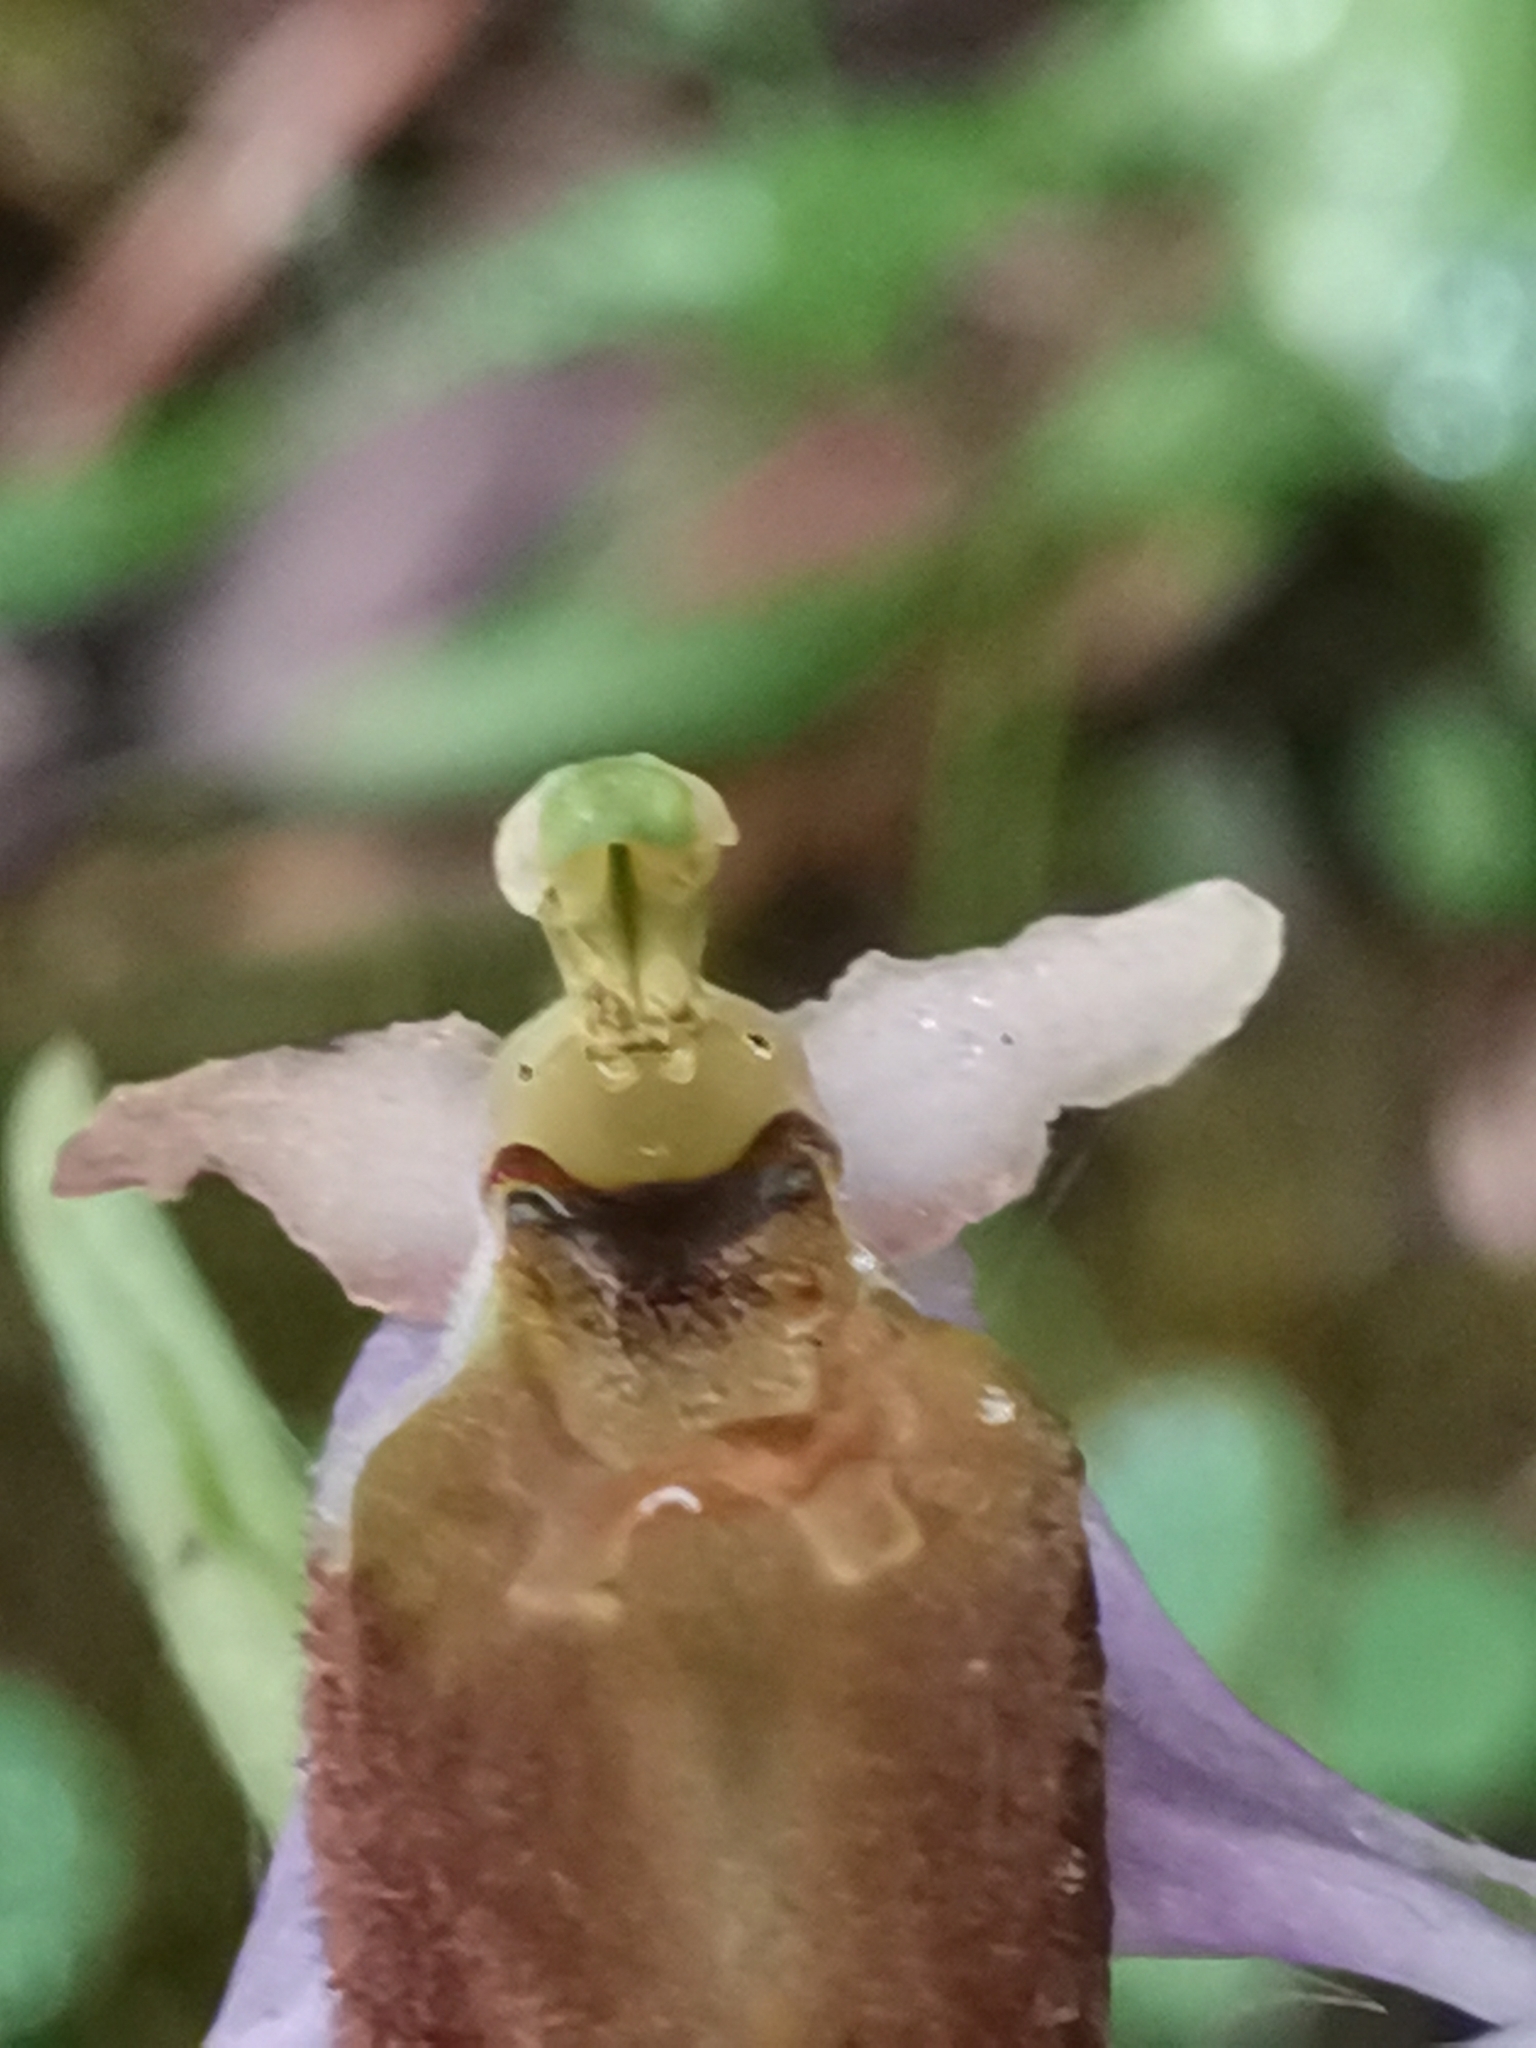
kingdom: Plantae
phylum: Tracheophyta
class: Liliopsida
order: Asparagales
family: Orchidaceae
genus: Ophrys
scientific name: Ophrys argolica
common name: Argolic ophrys
